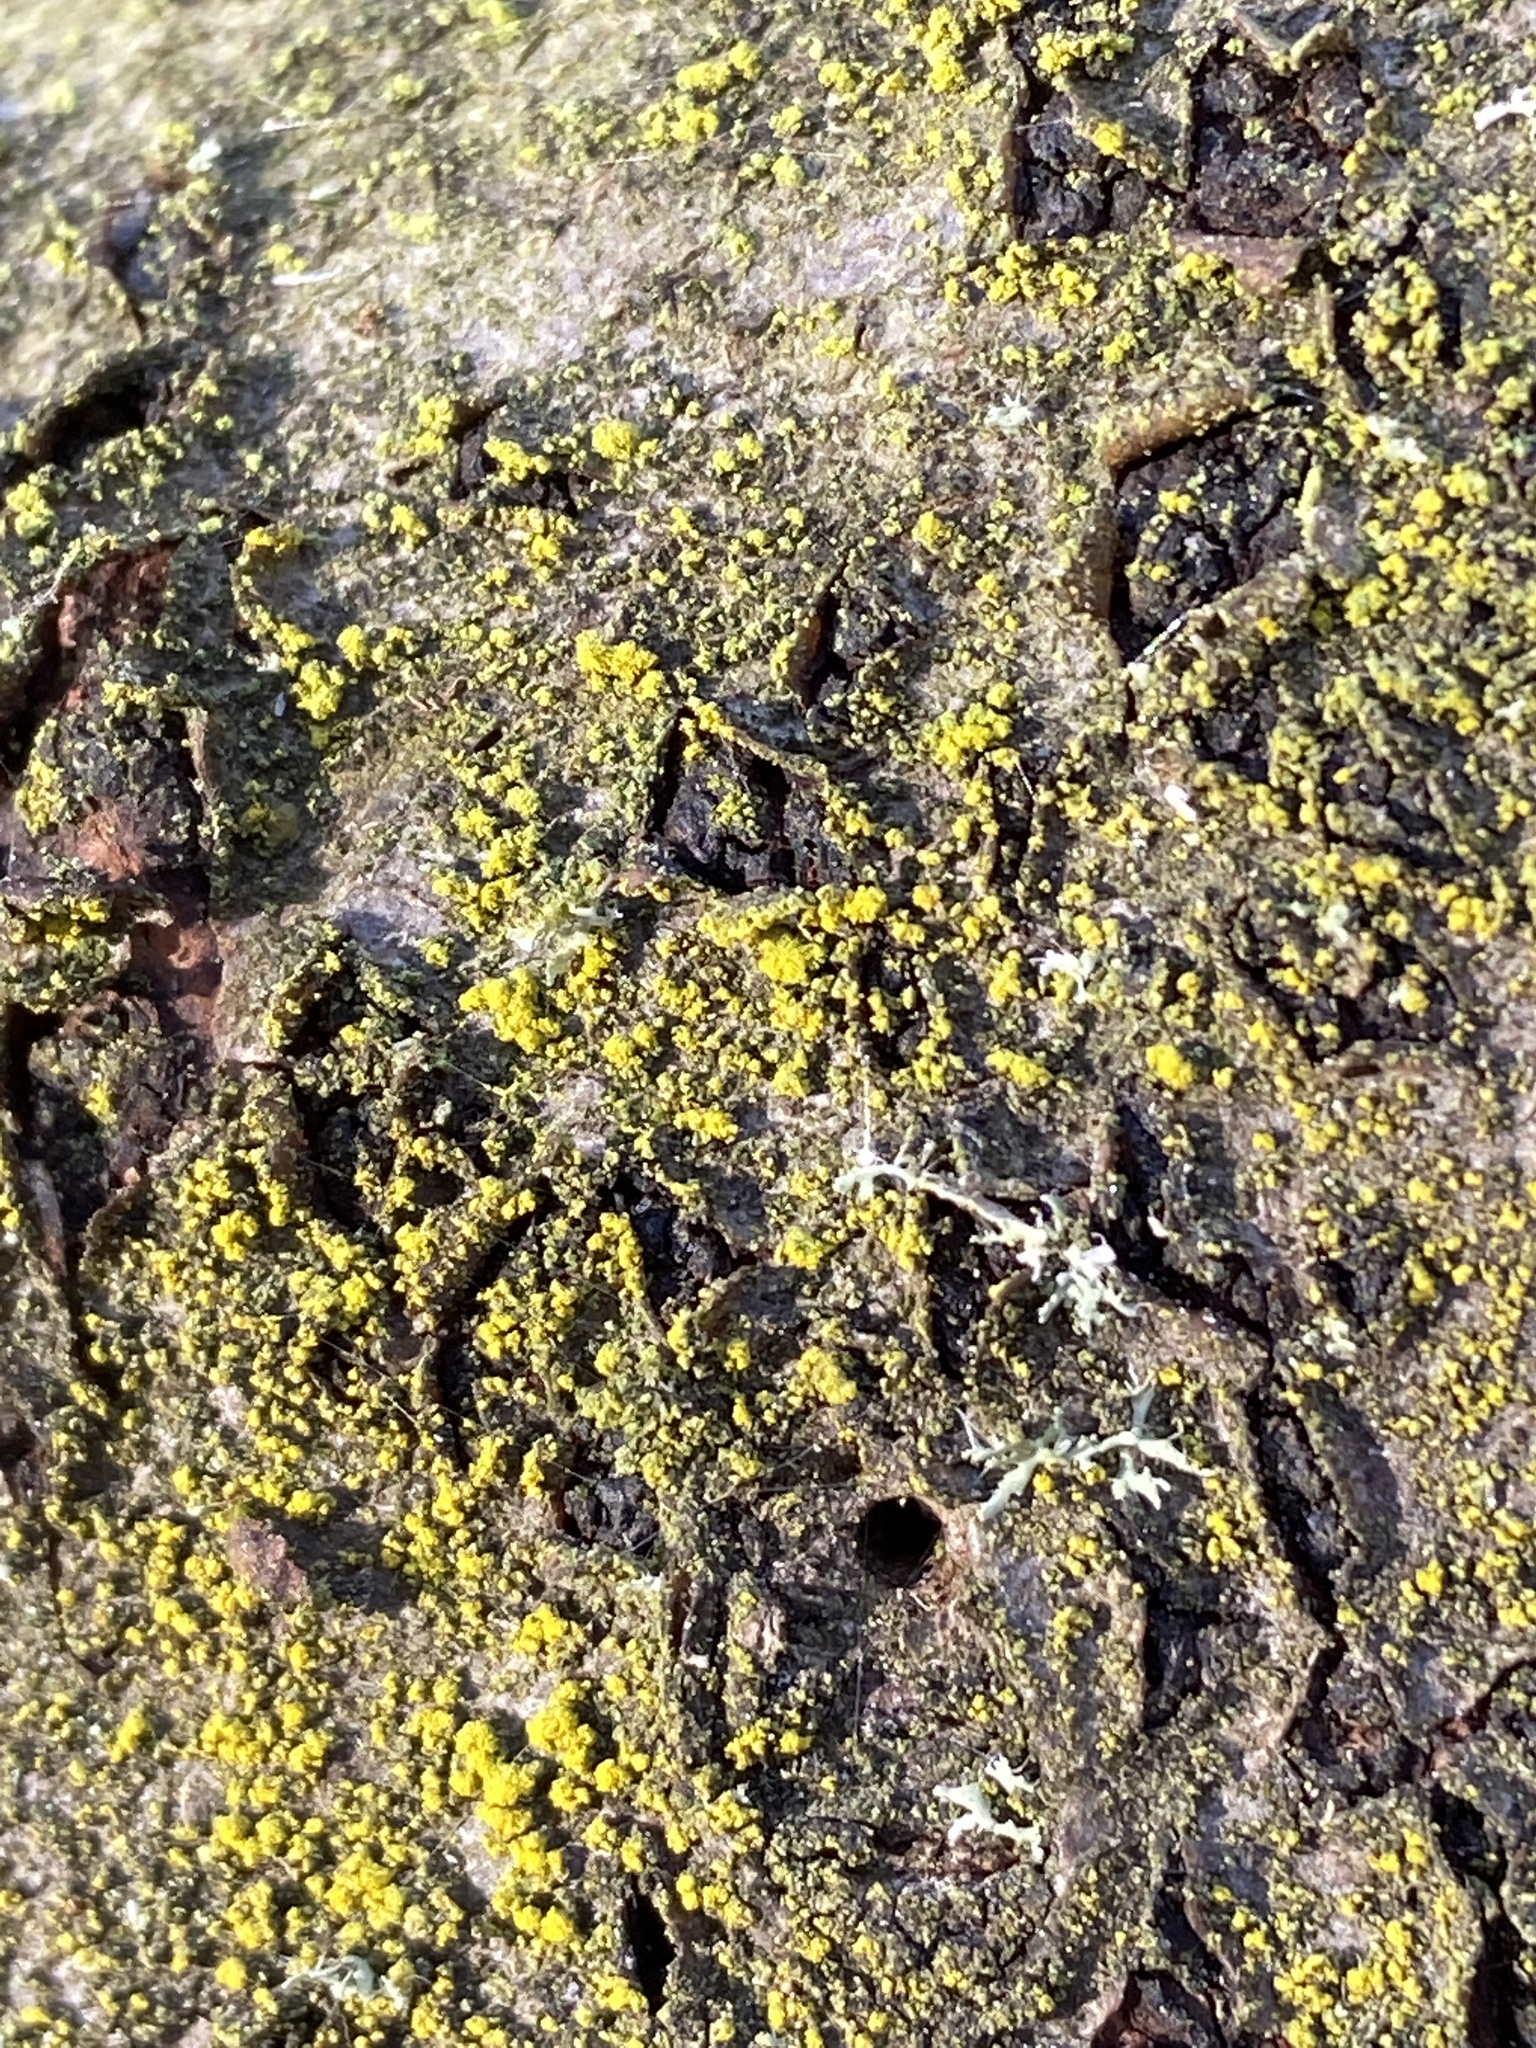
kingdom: Fungi
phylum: Ascomycota
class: Candelariomycetes
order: Candelariales
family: Candelariaceae
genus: Candelariella
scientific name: Candelariella efflorescens
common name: Powdery goldspeck
